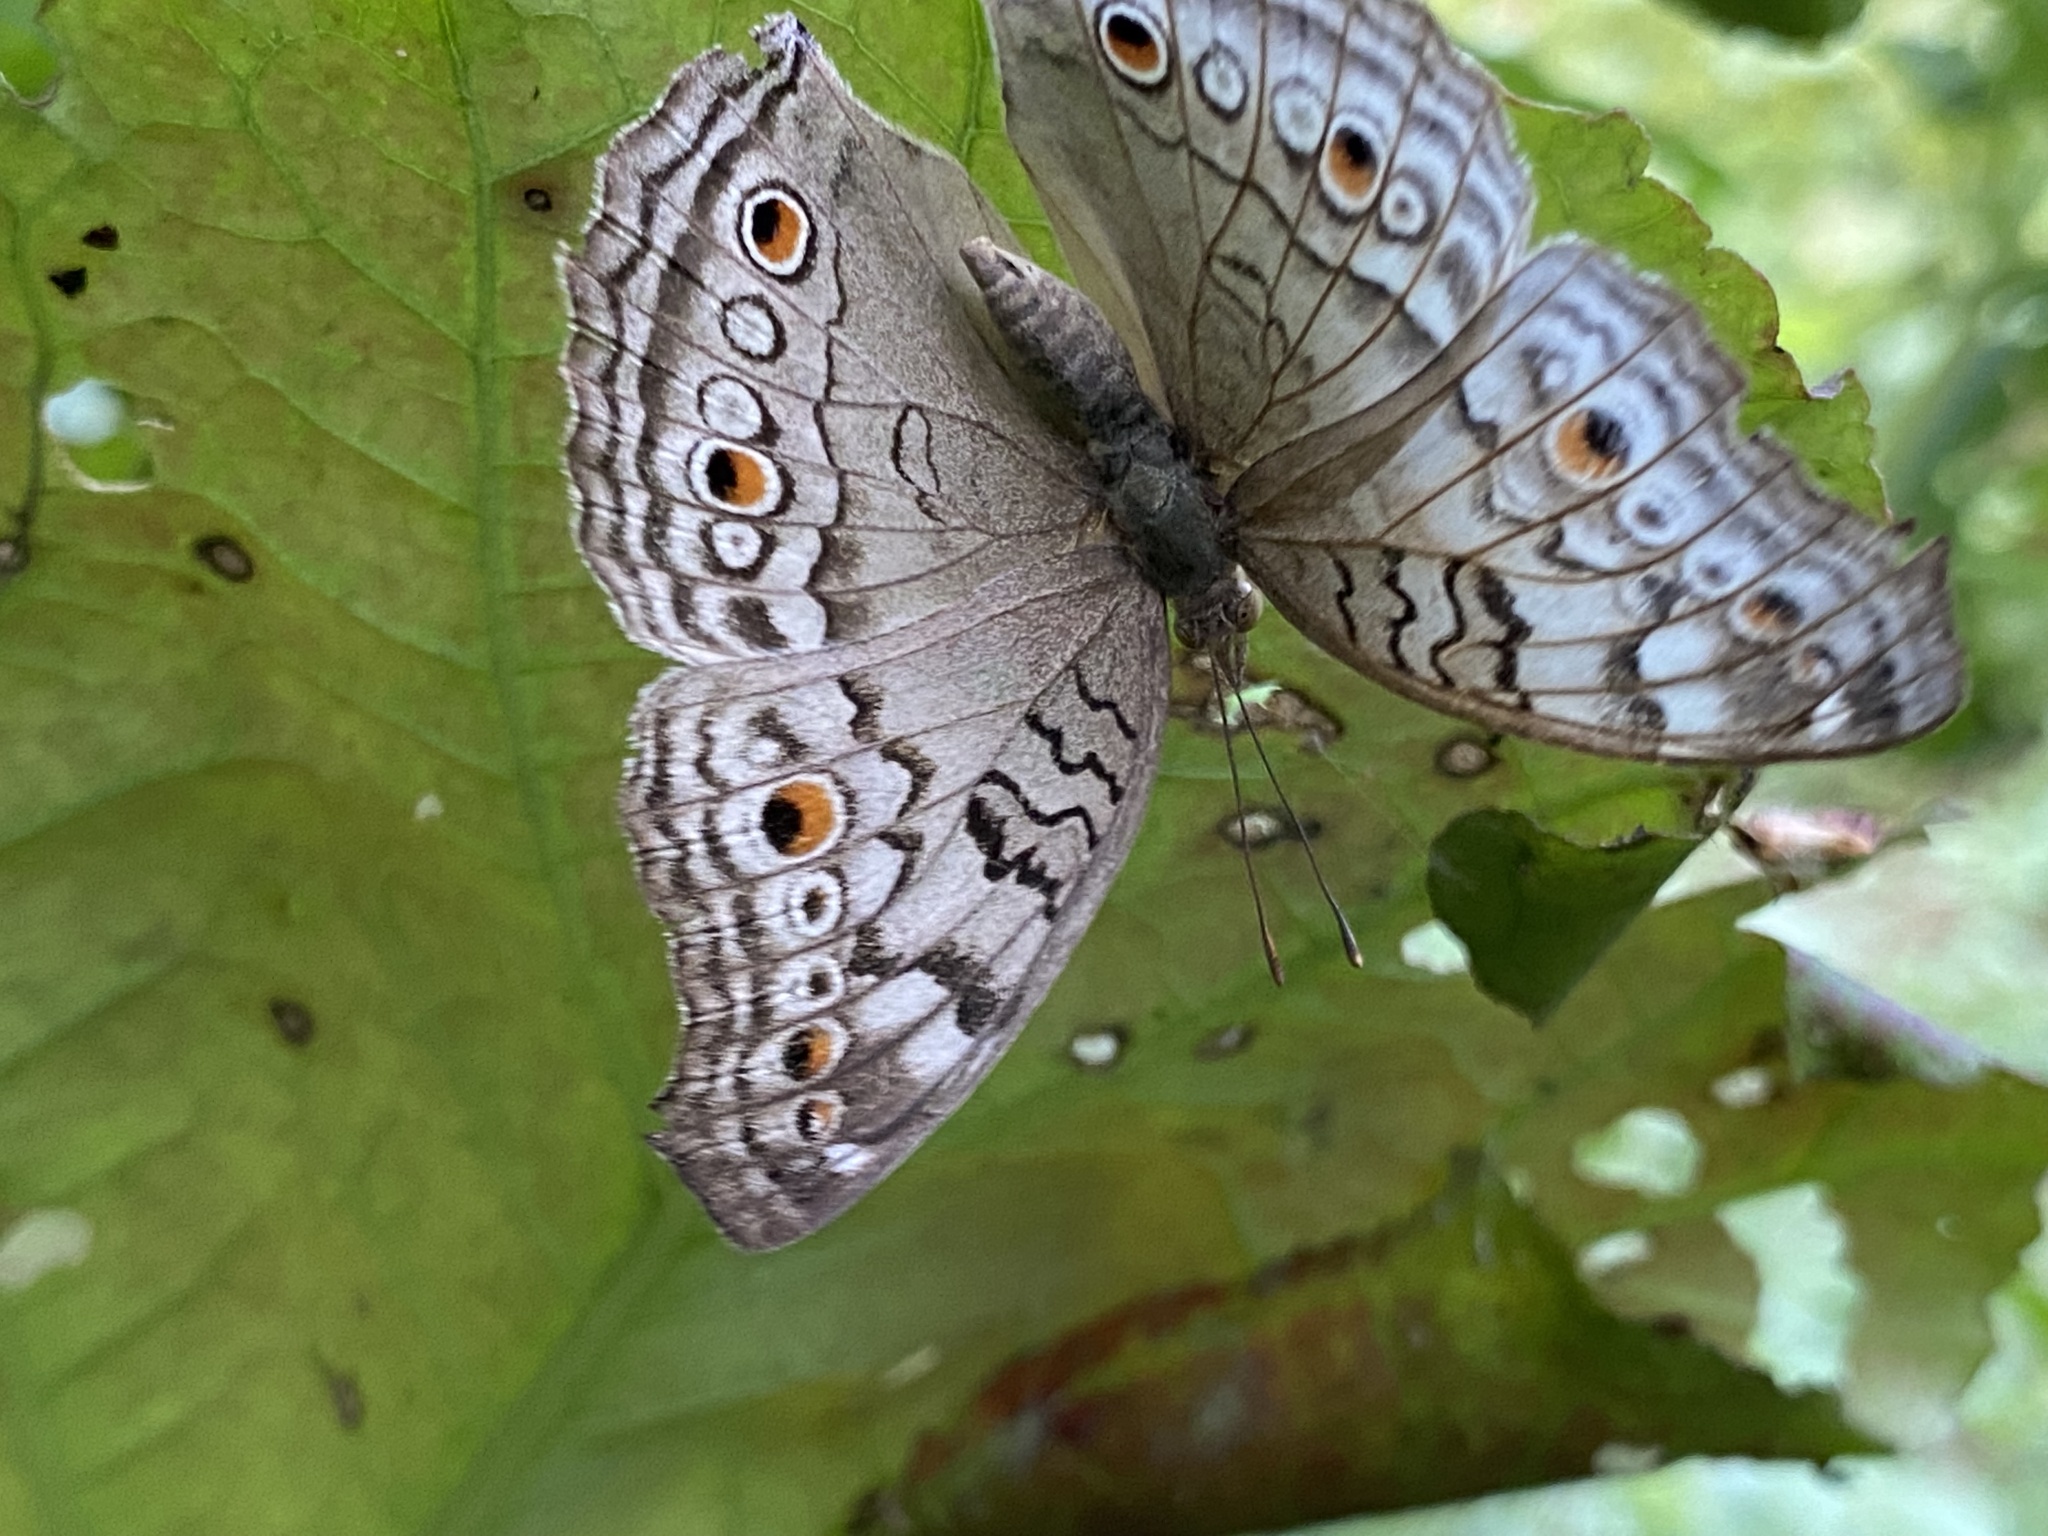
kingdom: Animalia
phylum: Arthropoda
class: Insecta
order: Lepidoptera
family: Nymphalidae
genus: Junonia
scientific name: Junonia atlites
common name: Grey pansy
